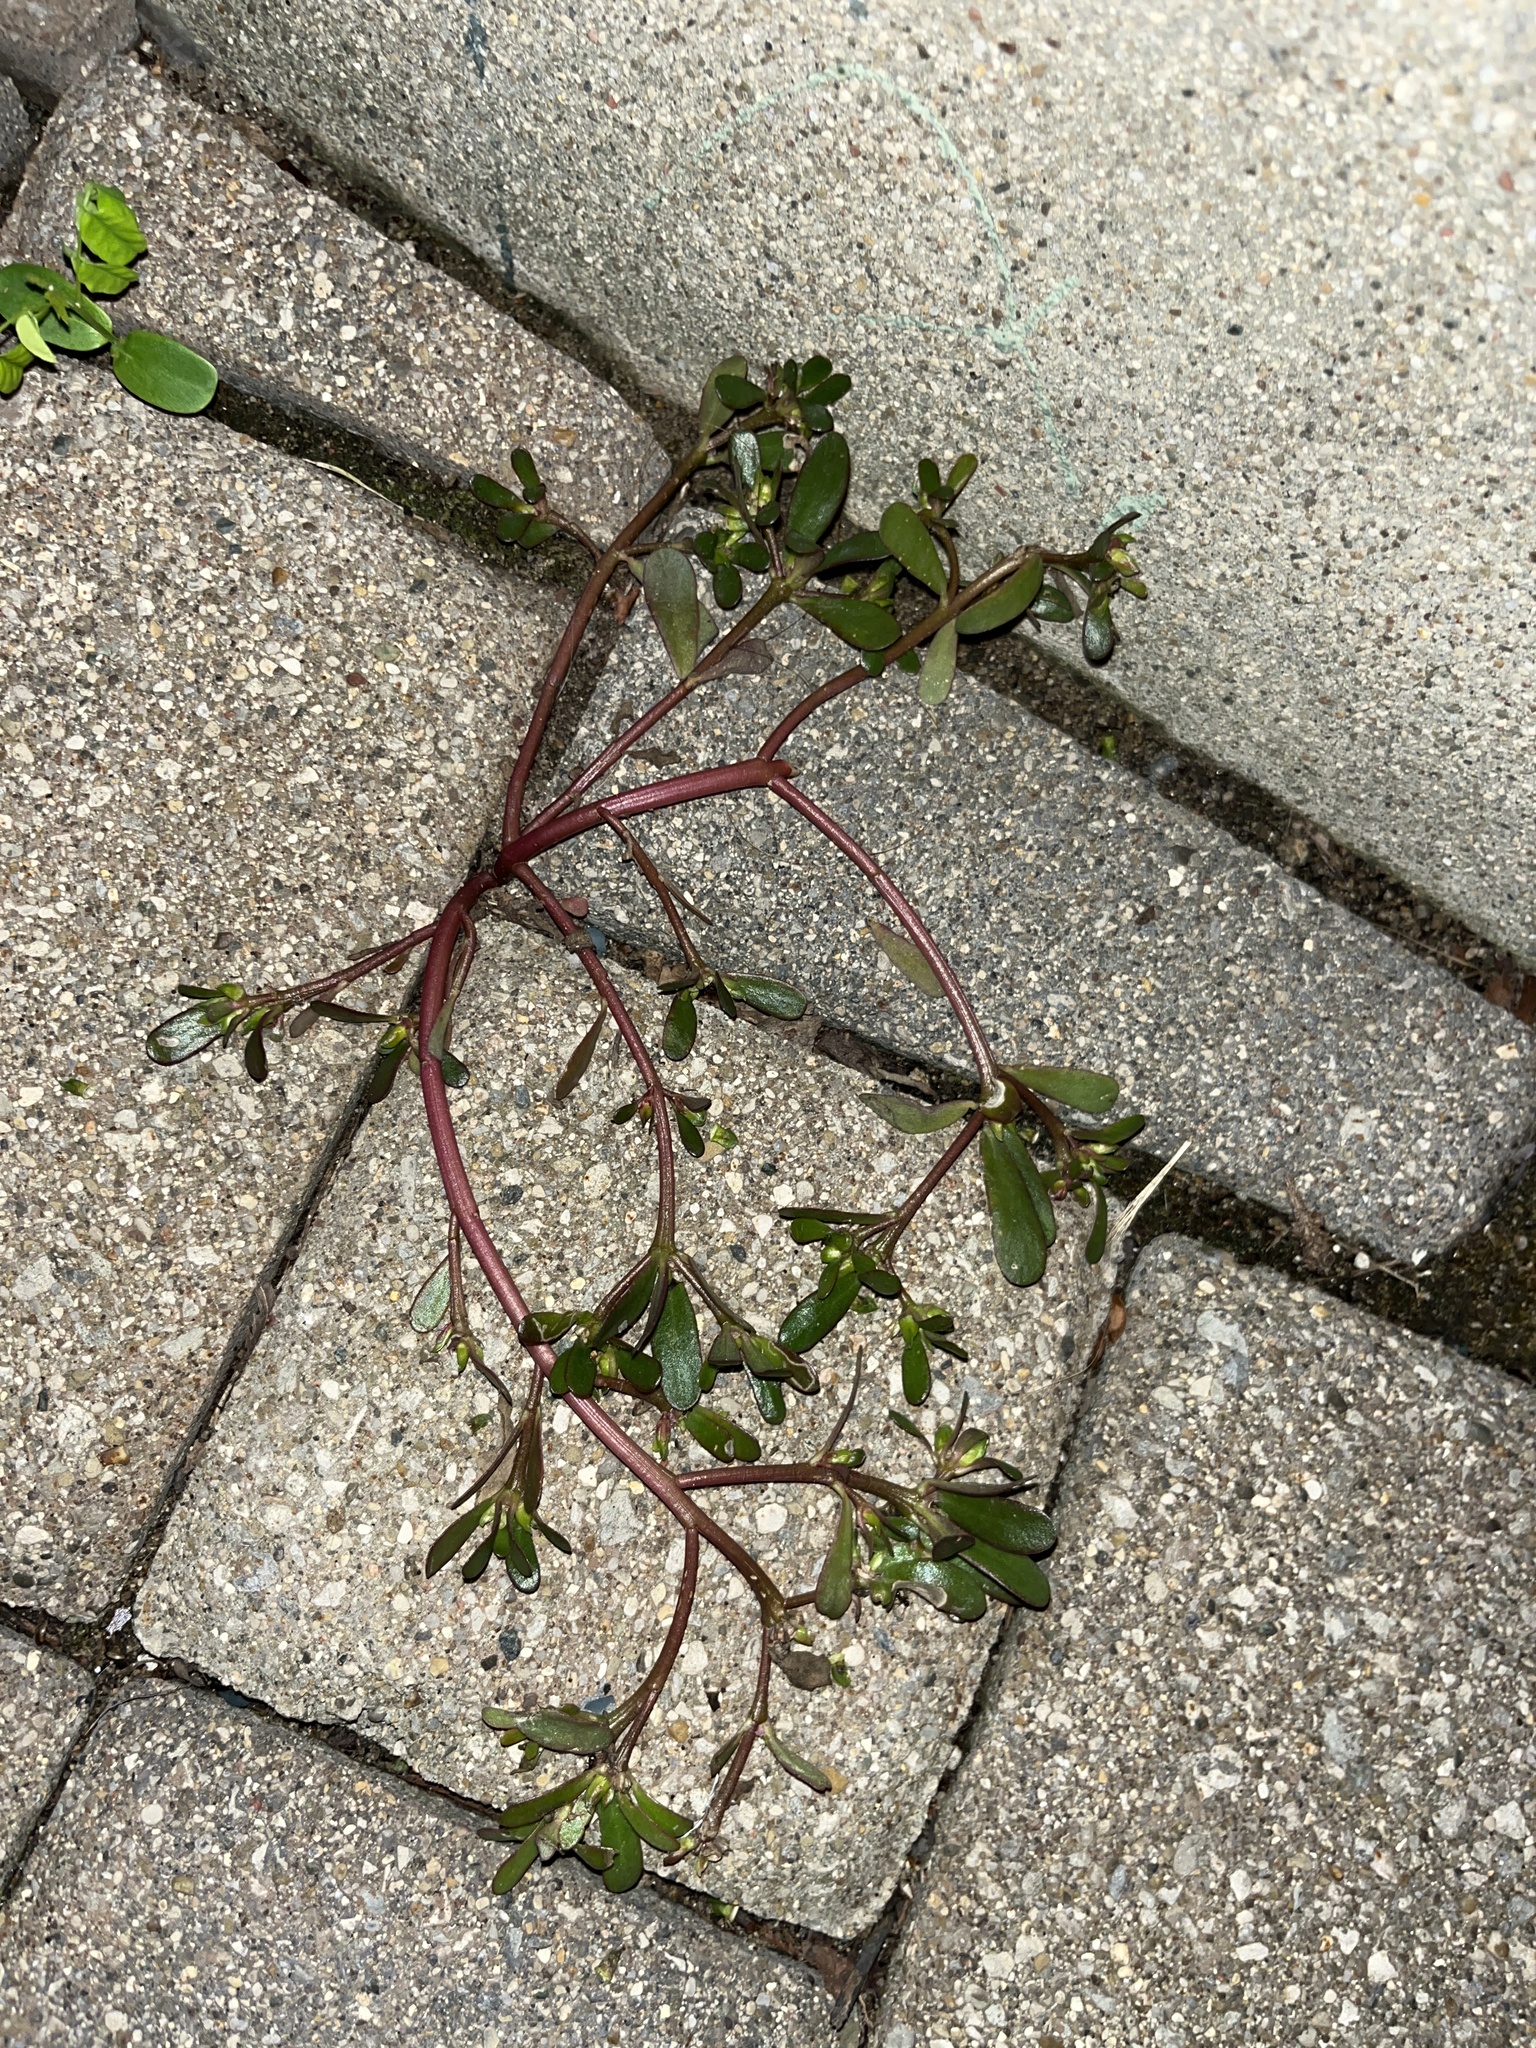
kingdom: Plantae
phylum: Tracheophyta
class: Magnoliopsida
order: Caryophyllales
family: Portulacaceae
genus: Portulaca
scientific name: Portulaca oleracea
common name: Common purslane
